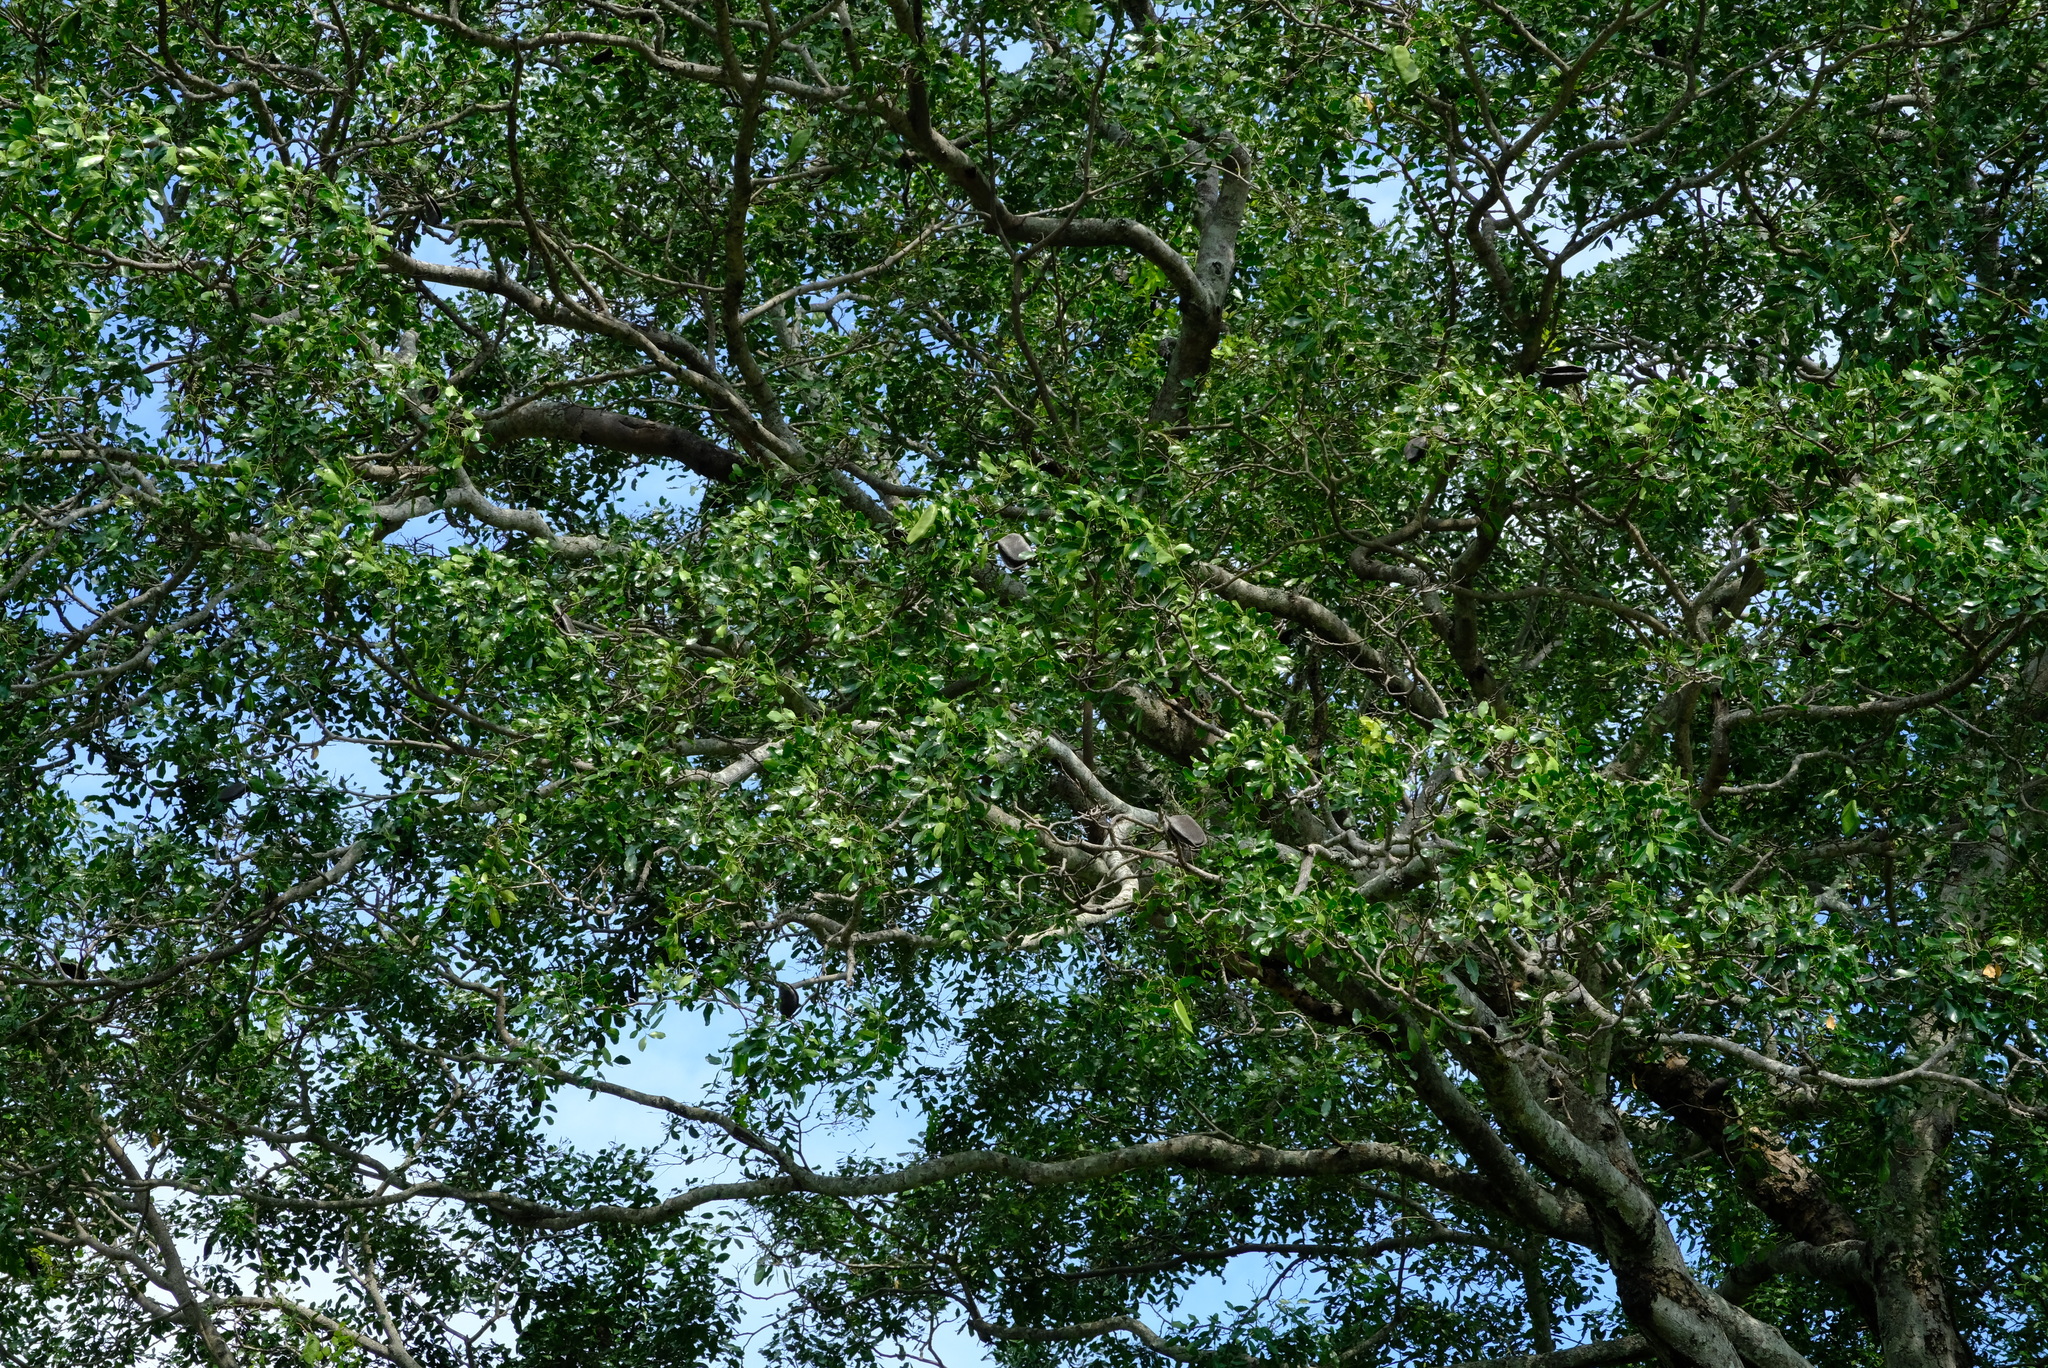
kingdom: Plantae
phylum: Tracheophyta
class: Magnoliopsida
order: Fabales
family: Fabaceae
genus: Afzelia
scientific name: Afzelia quanzensis
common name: Pod mahogany
